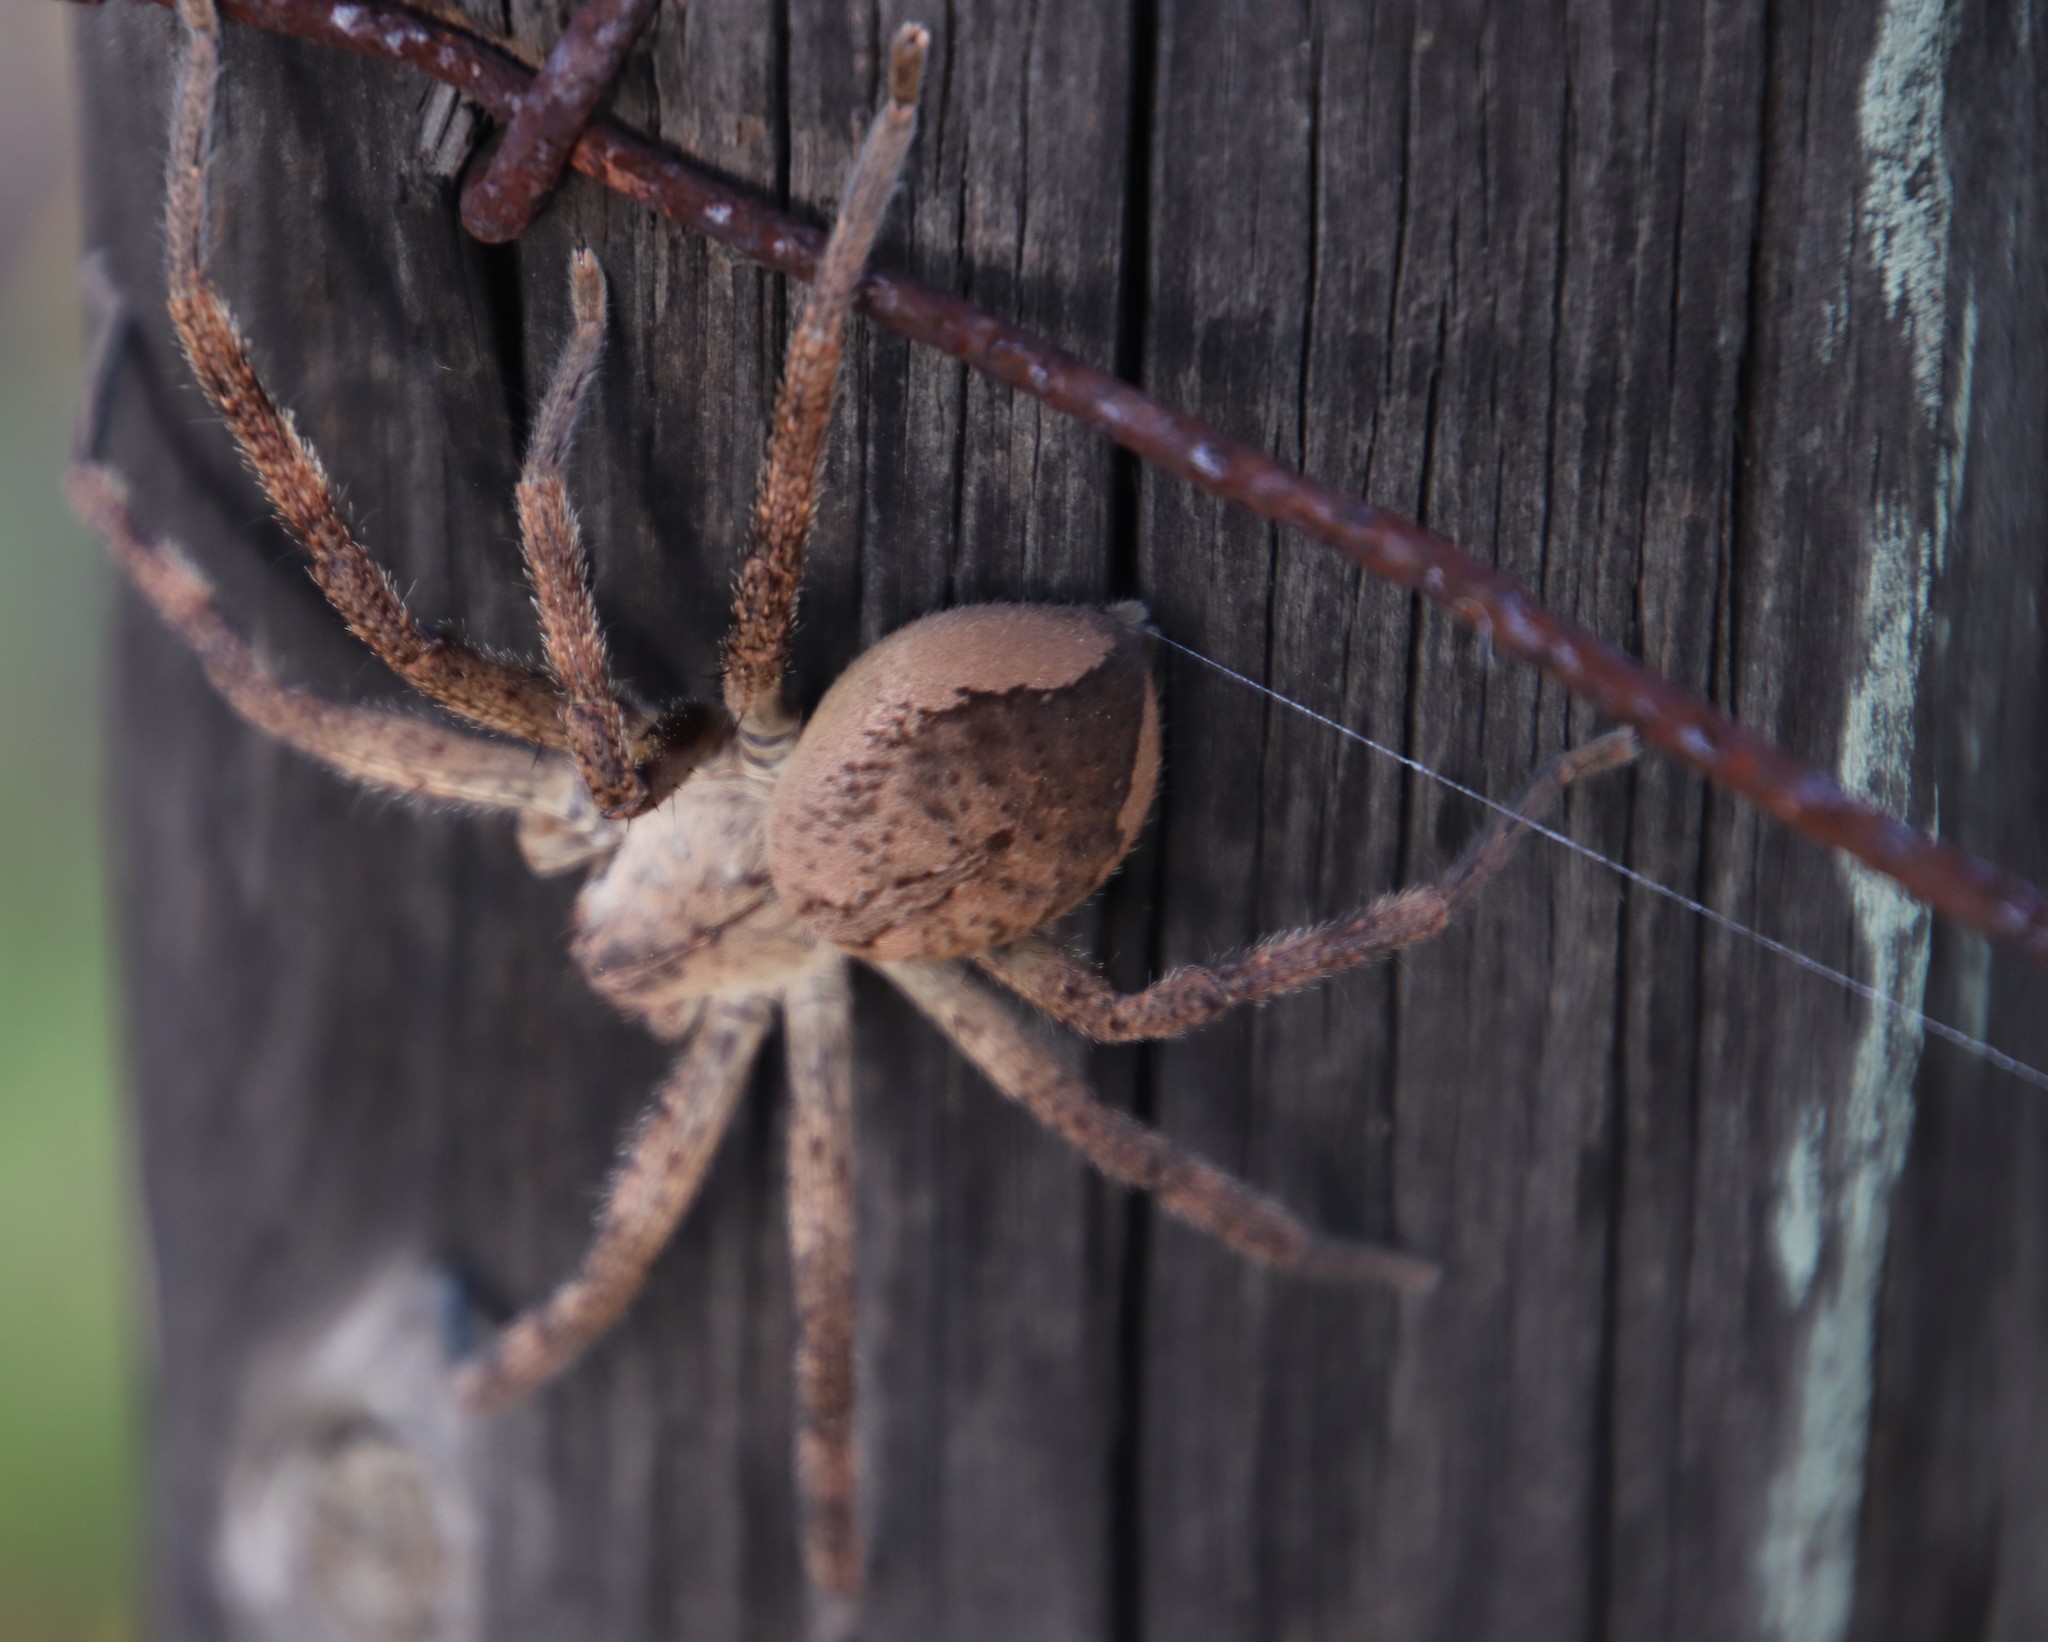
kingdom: Animalia
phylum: Arthropoda
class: Arachnida
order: Araneae
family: Sparassidae
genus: Palystes
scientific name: Palystes superciliosus
